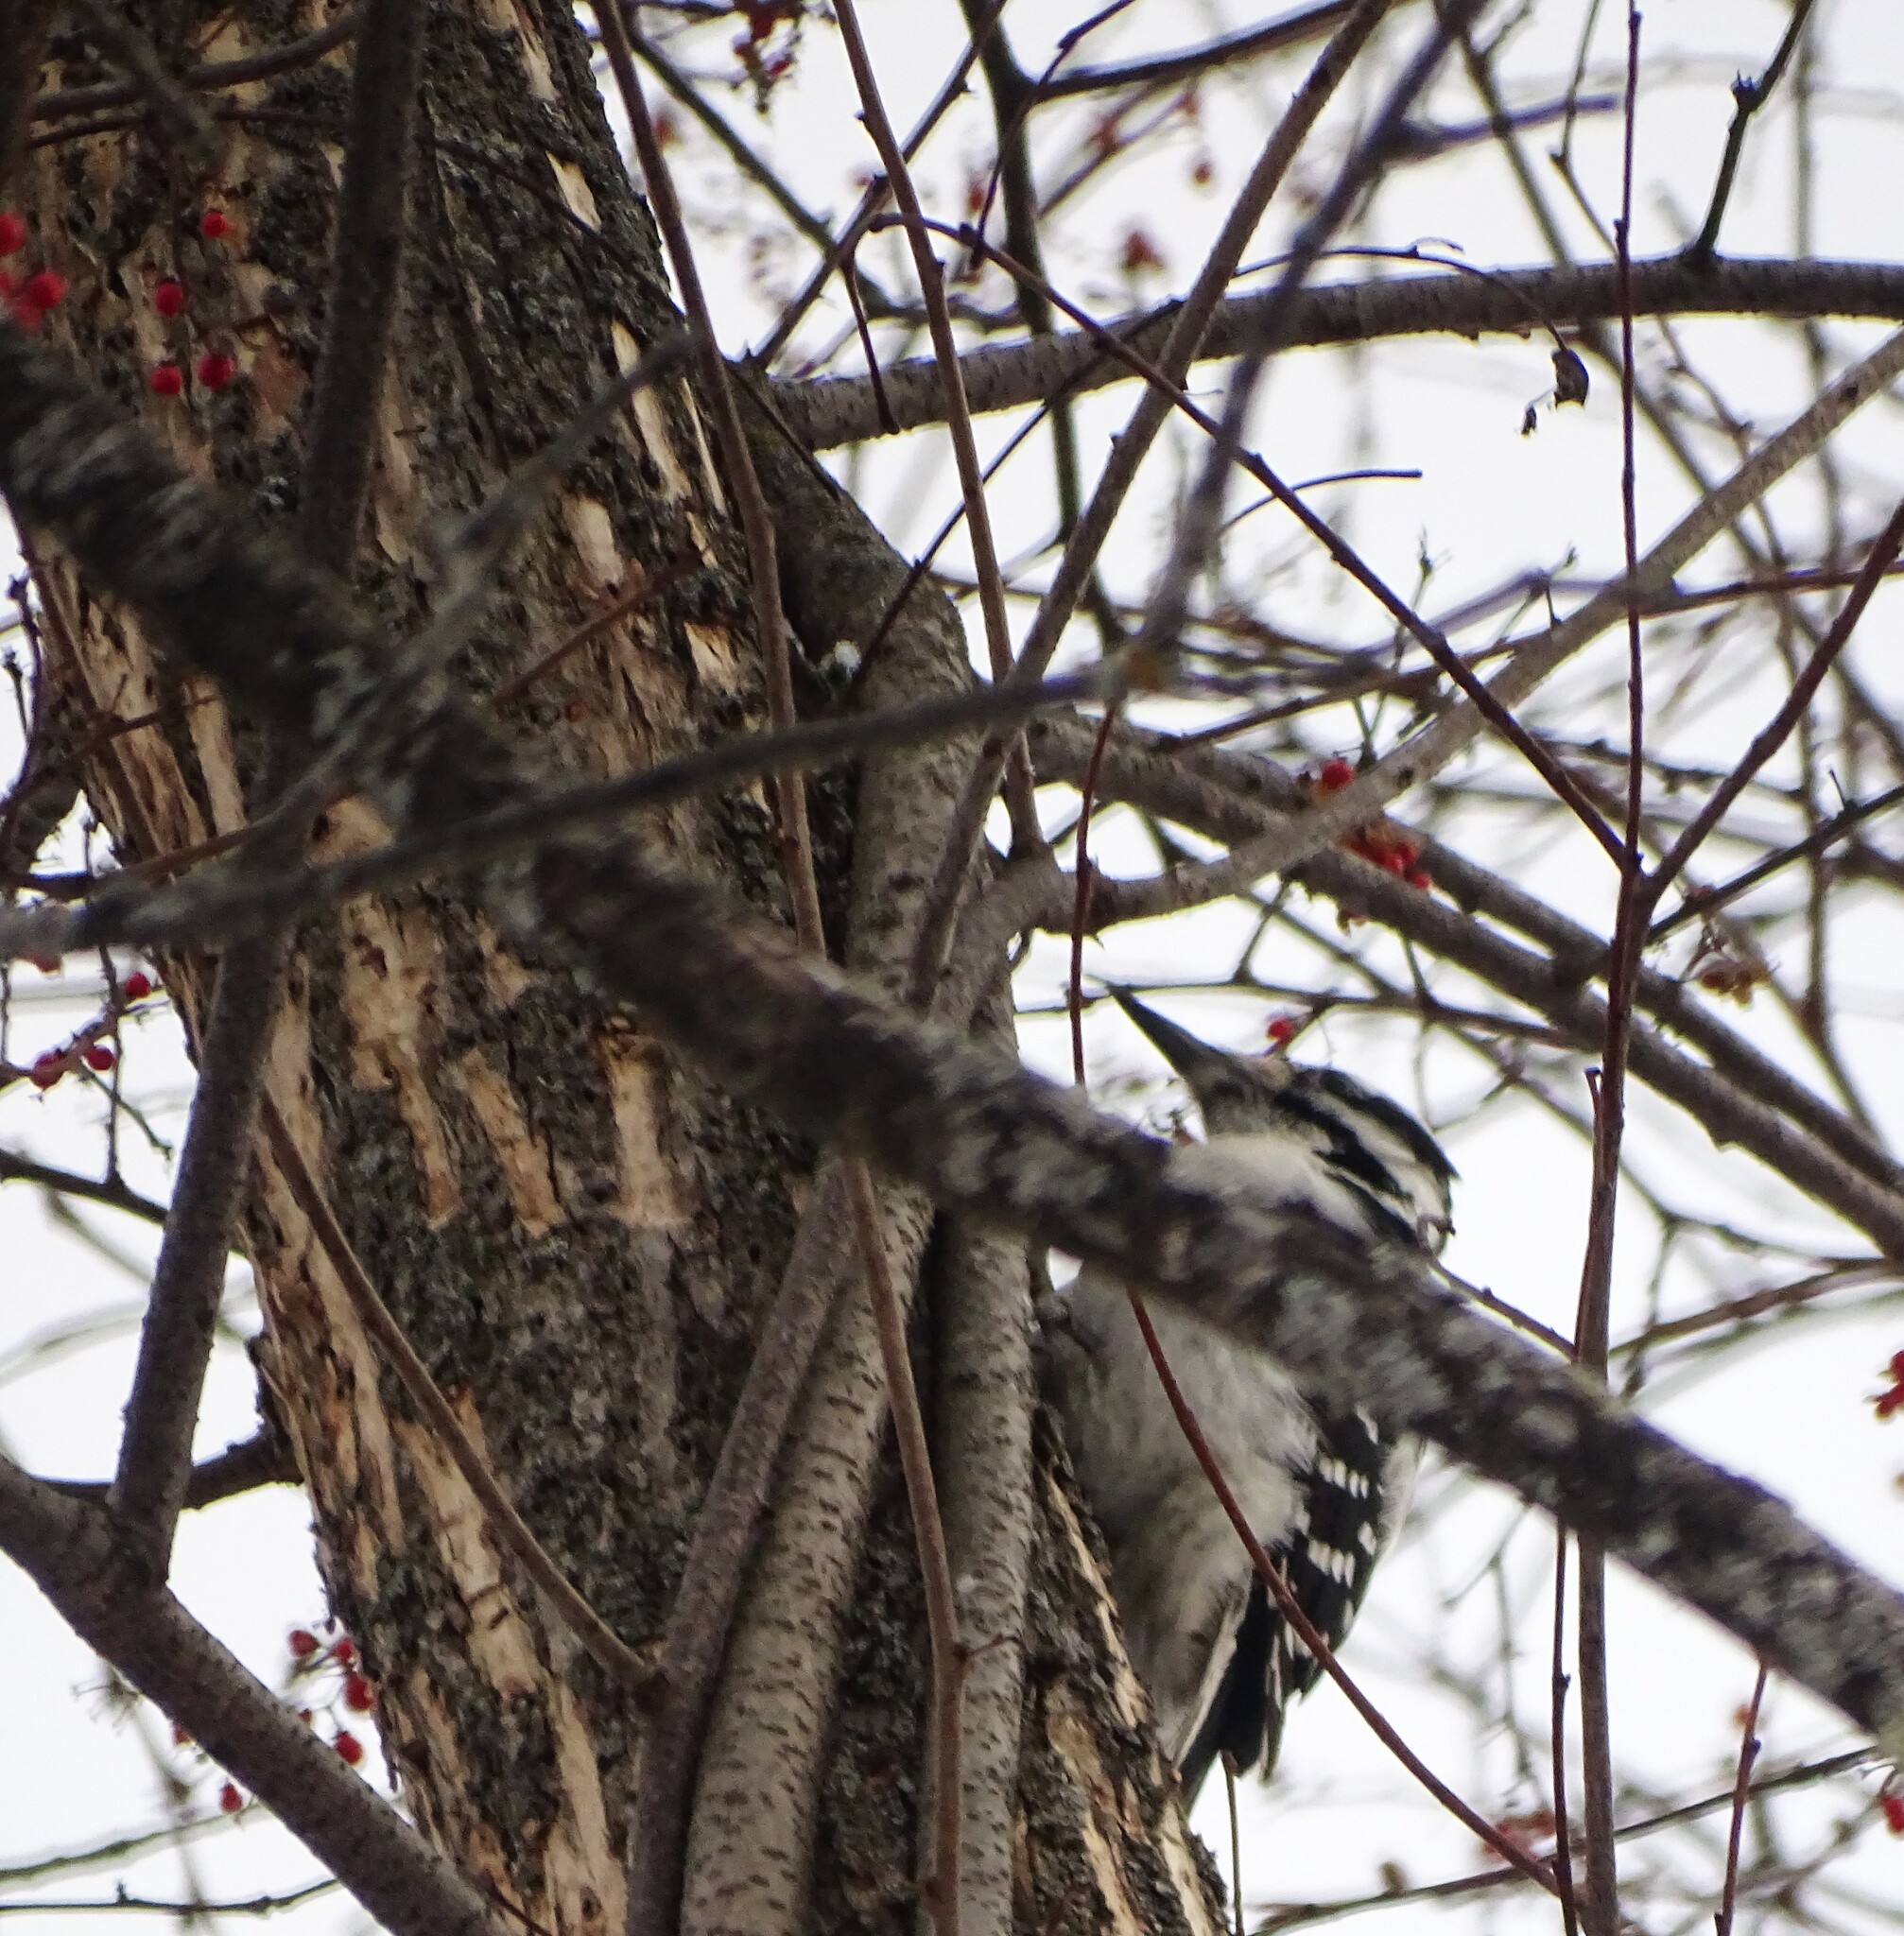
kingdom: Animalia
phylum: Chordata
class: Aves
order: Piciformes
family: Picidae
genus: Leuconotopicus
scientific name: Leuconotopicus villosus
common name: Hairy woodpecker
